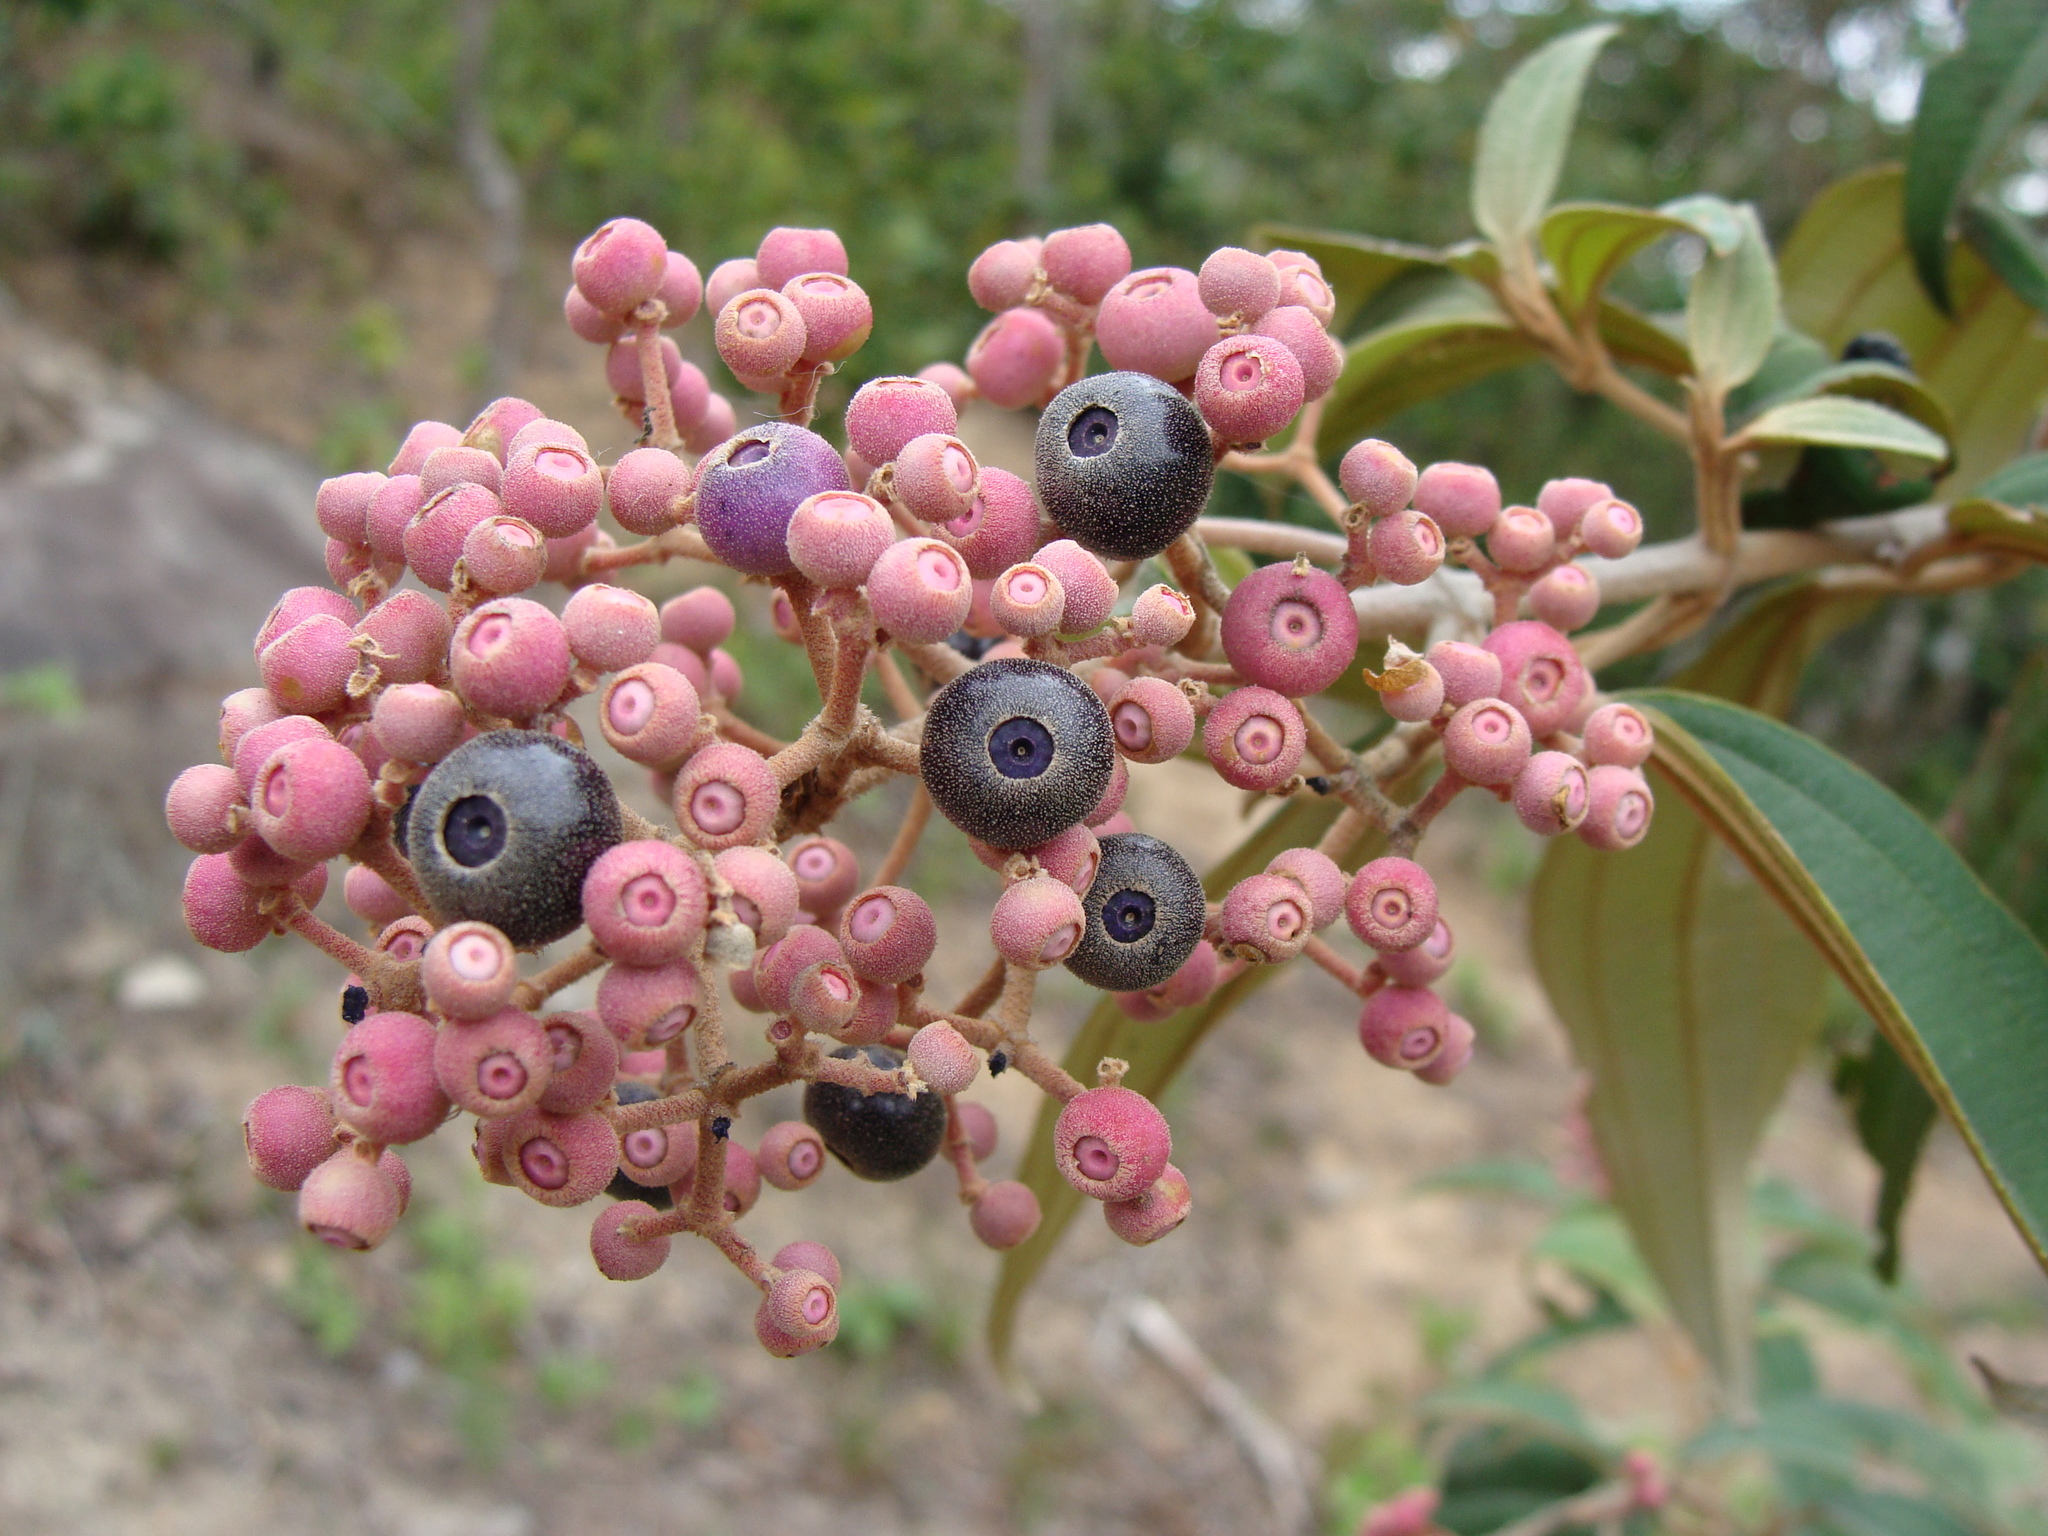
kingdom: Plantae
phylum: Tracheophyta
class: Magnoliopsida
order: Myrtales
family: Melastomataceae
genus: Miconia
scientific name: Miconia xalapensis
